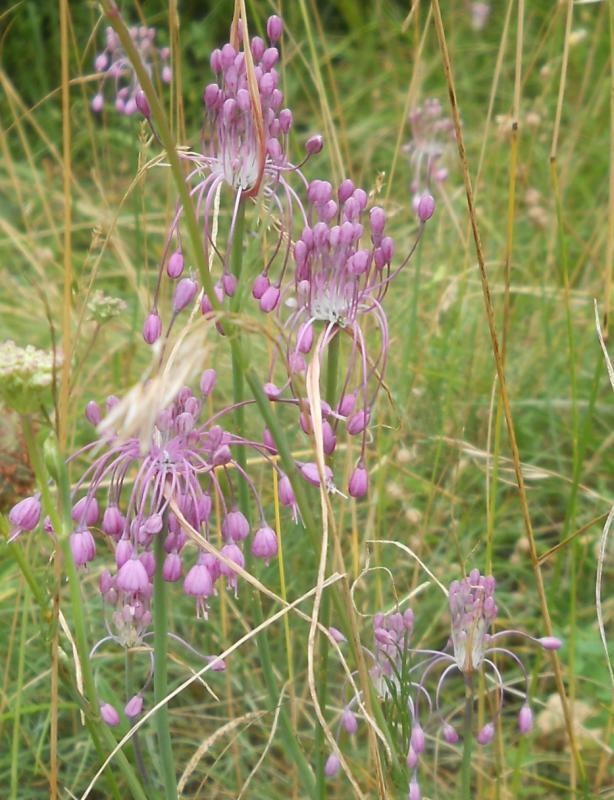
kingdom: Plantae
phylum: Tracheophyta
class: Liliopsida
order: Asparagales
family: Amaryllidaceae
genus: Allium
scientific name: Allium coloratum
